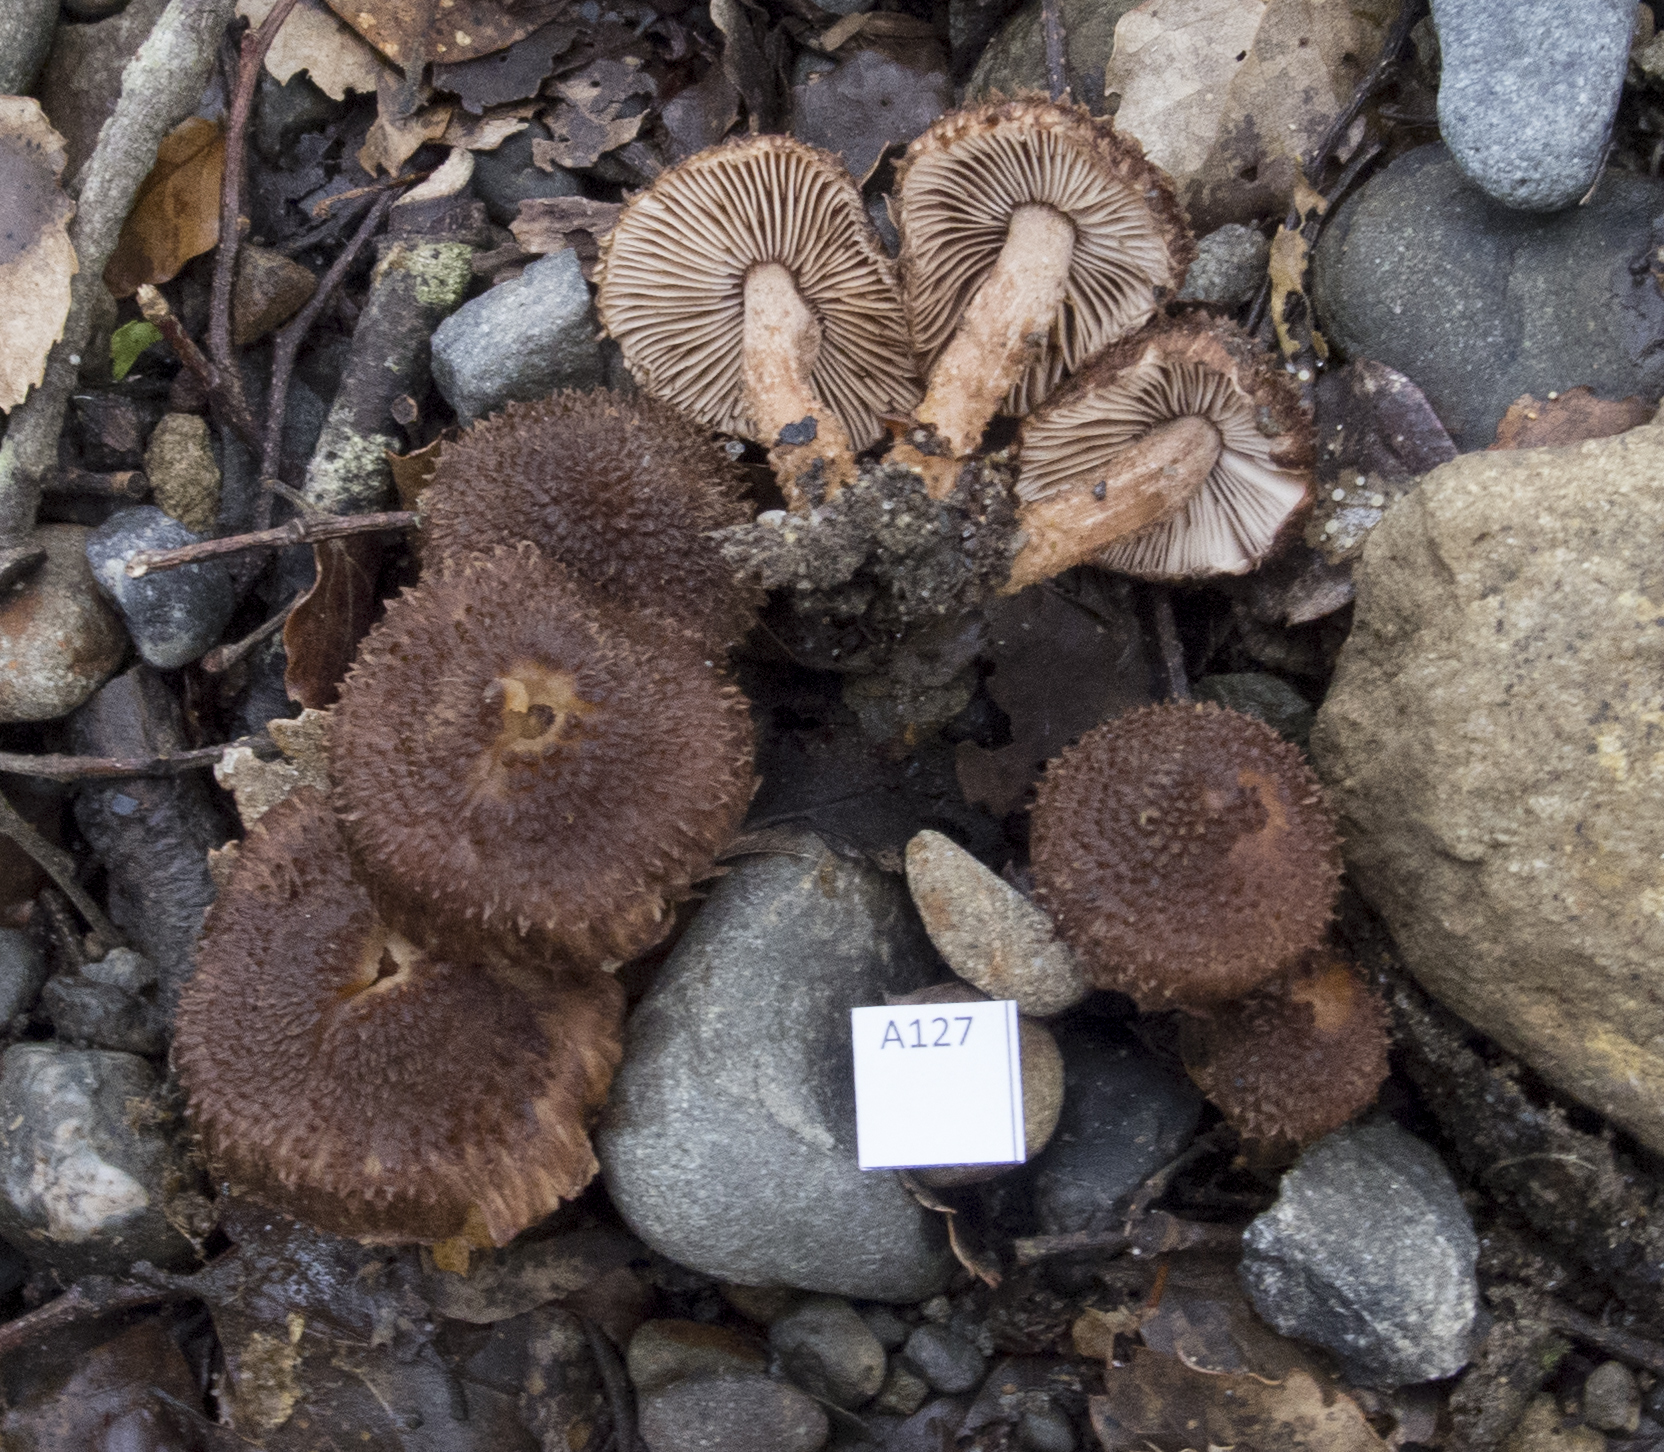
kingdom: Fungi
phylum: Basidiomycota
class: Agaricomycetes
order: Agaricales
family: Inocybaceae
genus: Inocybe
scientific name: Inocybe umbrosa
